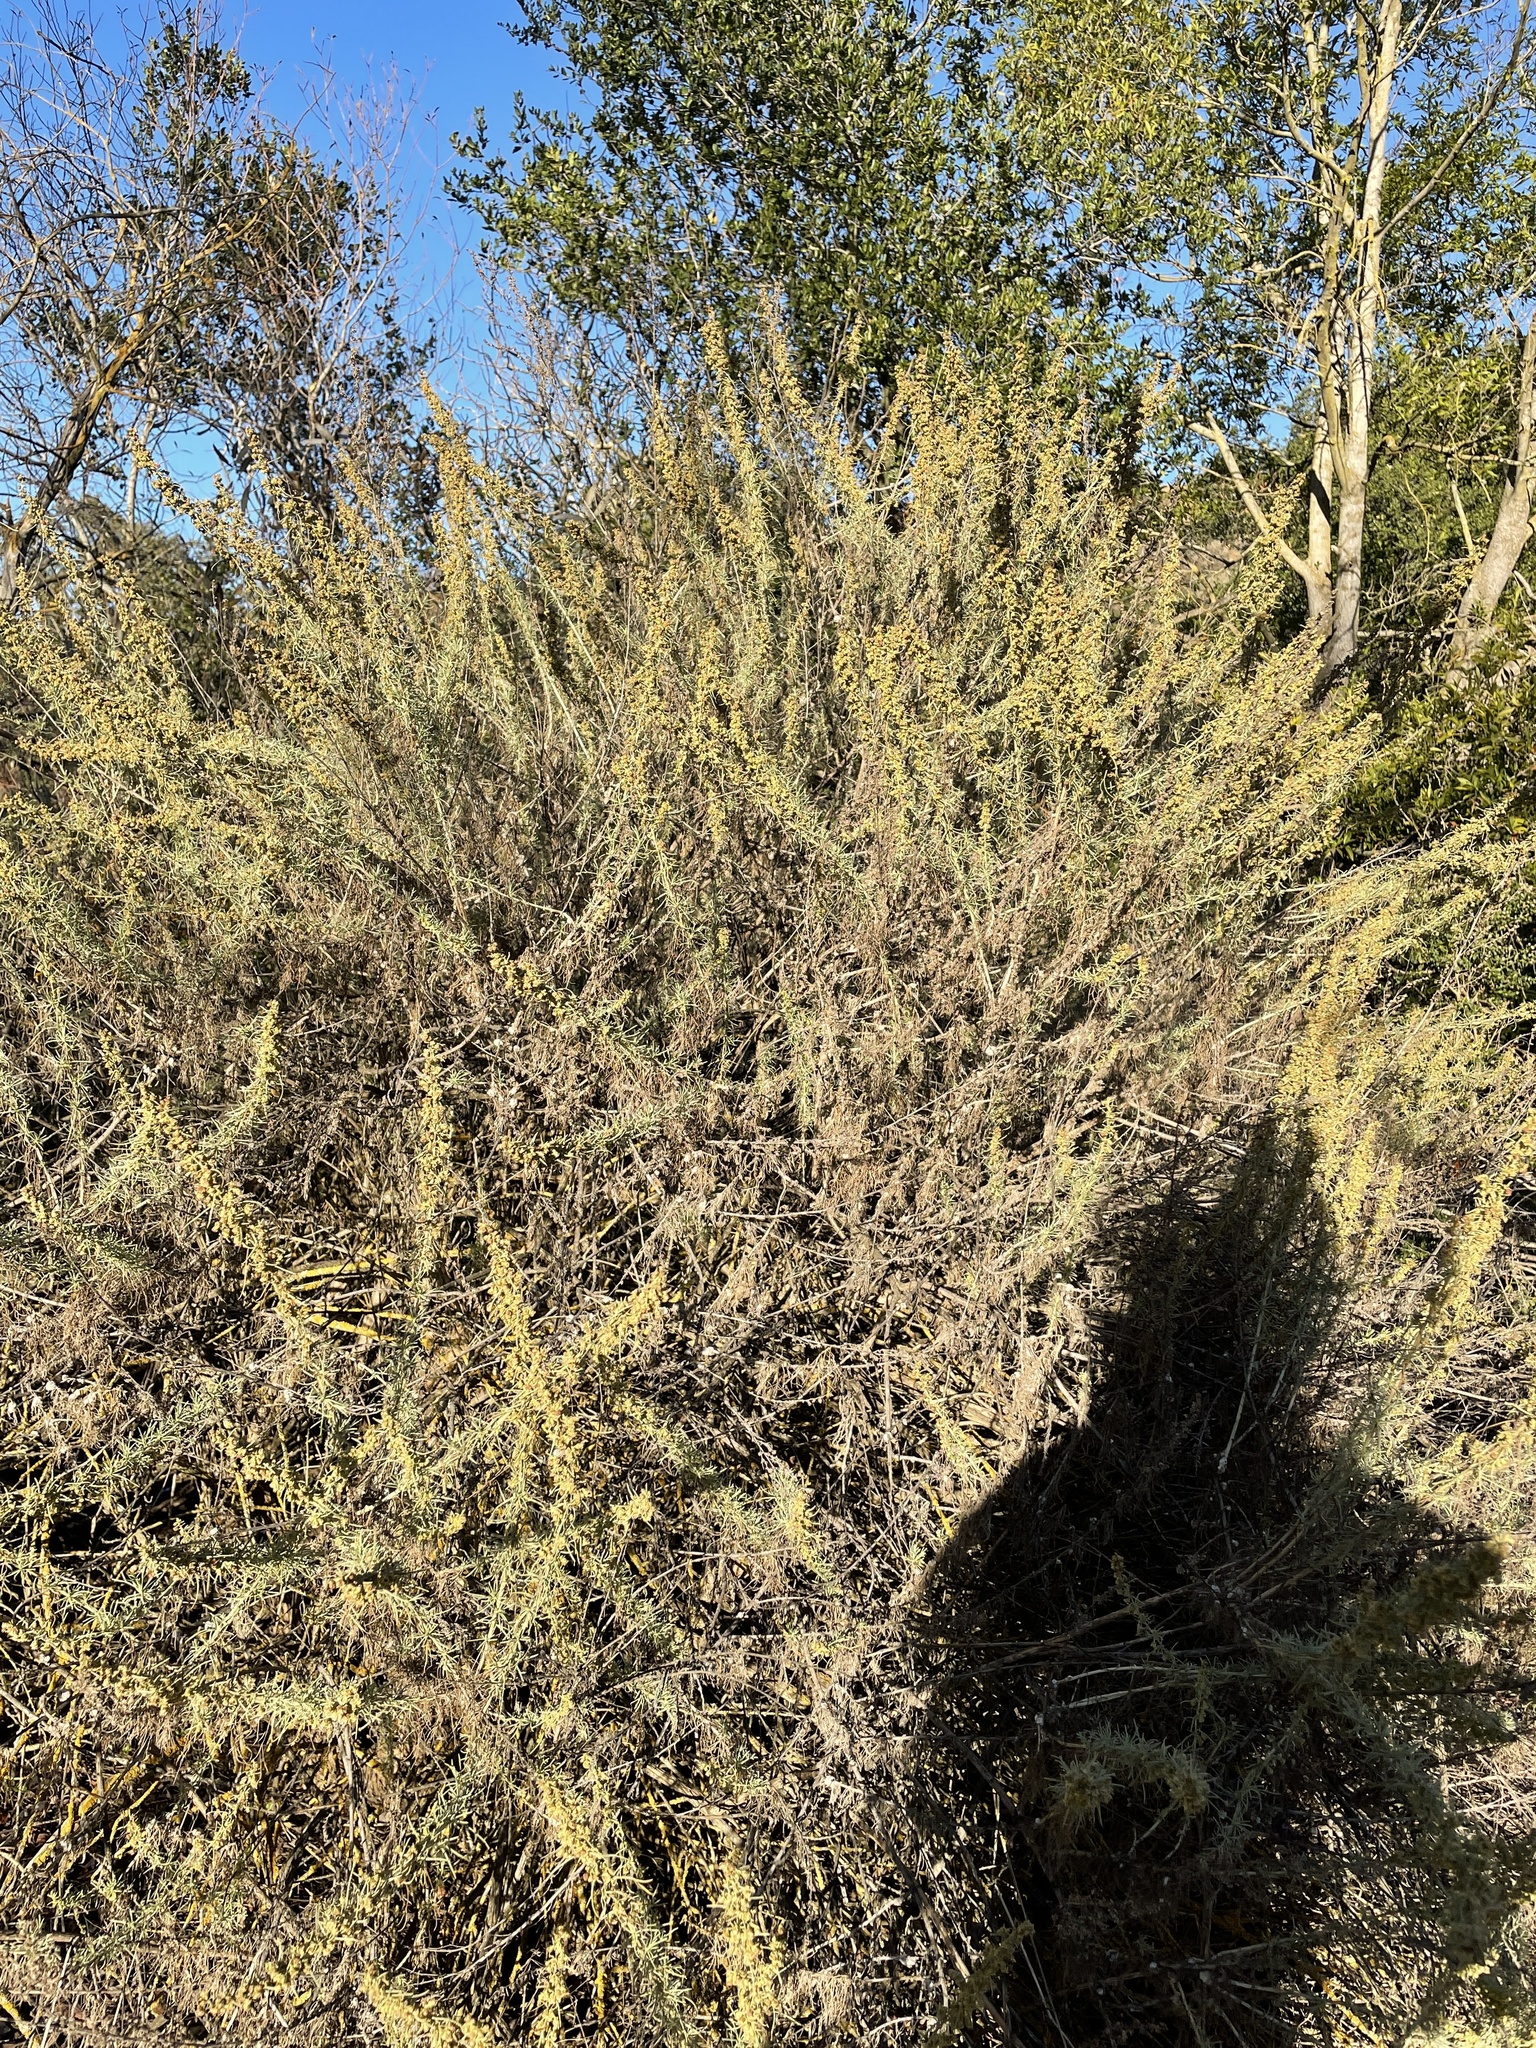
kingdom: Plantae
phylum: Tracheophyta
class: Magnoliopsida
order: Asterales
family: Asteraceae
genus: Artemisia
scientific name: Artemisia californica
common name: California sagebrush
